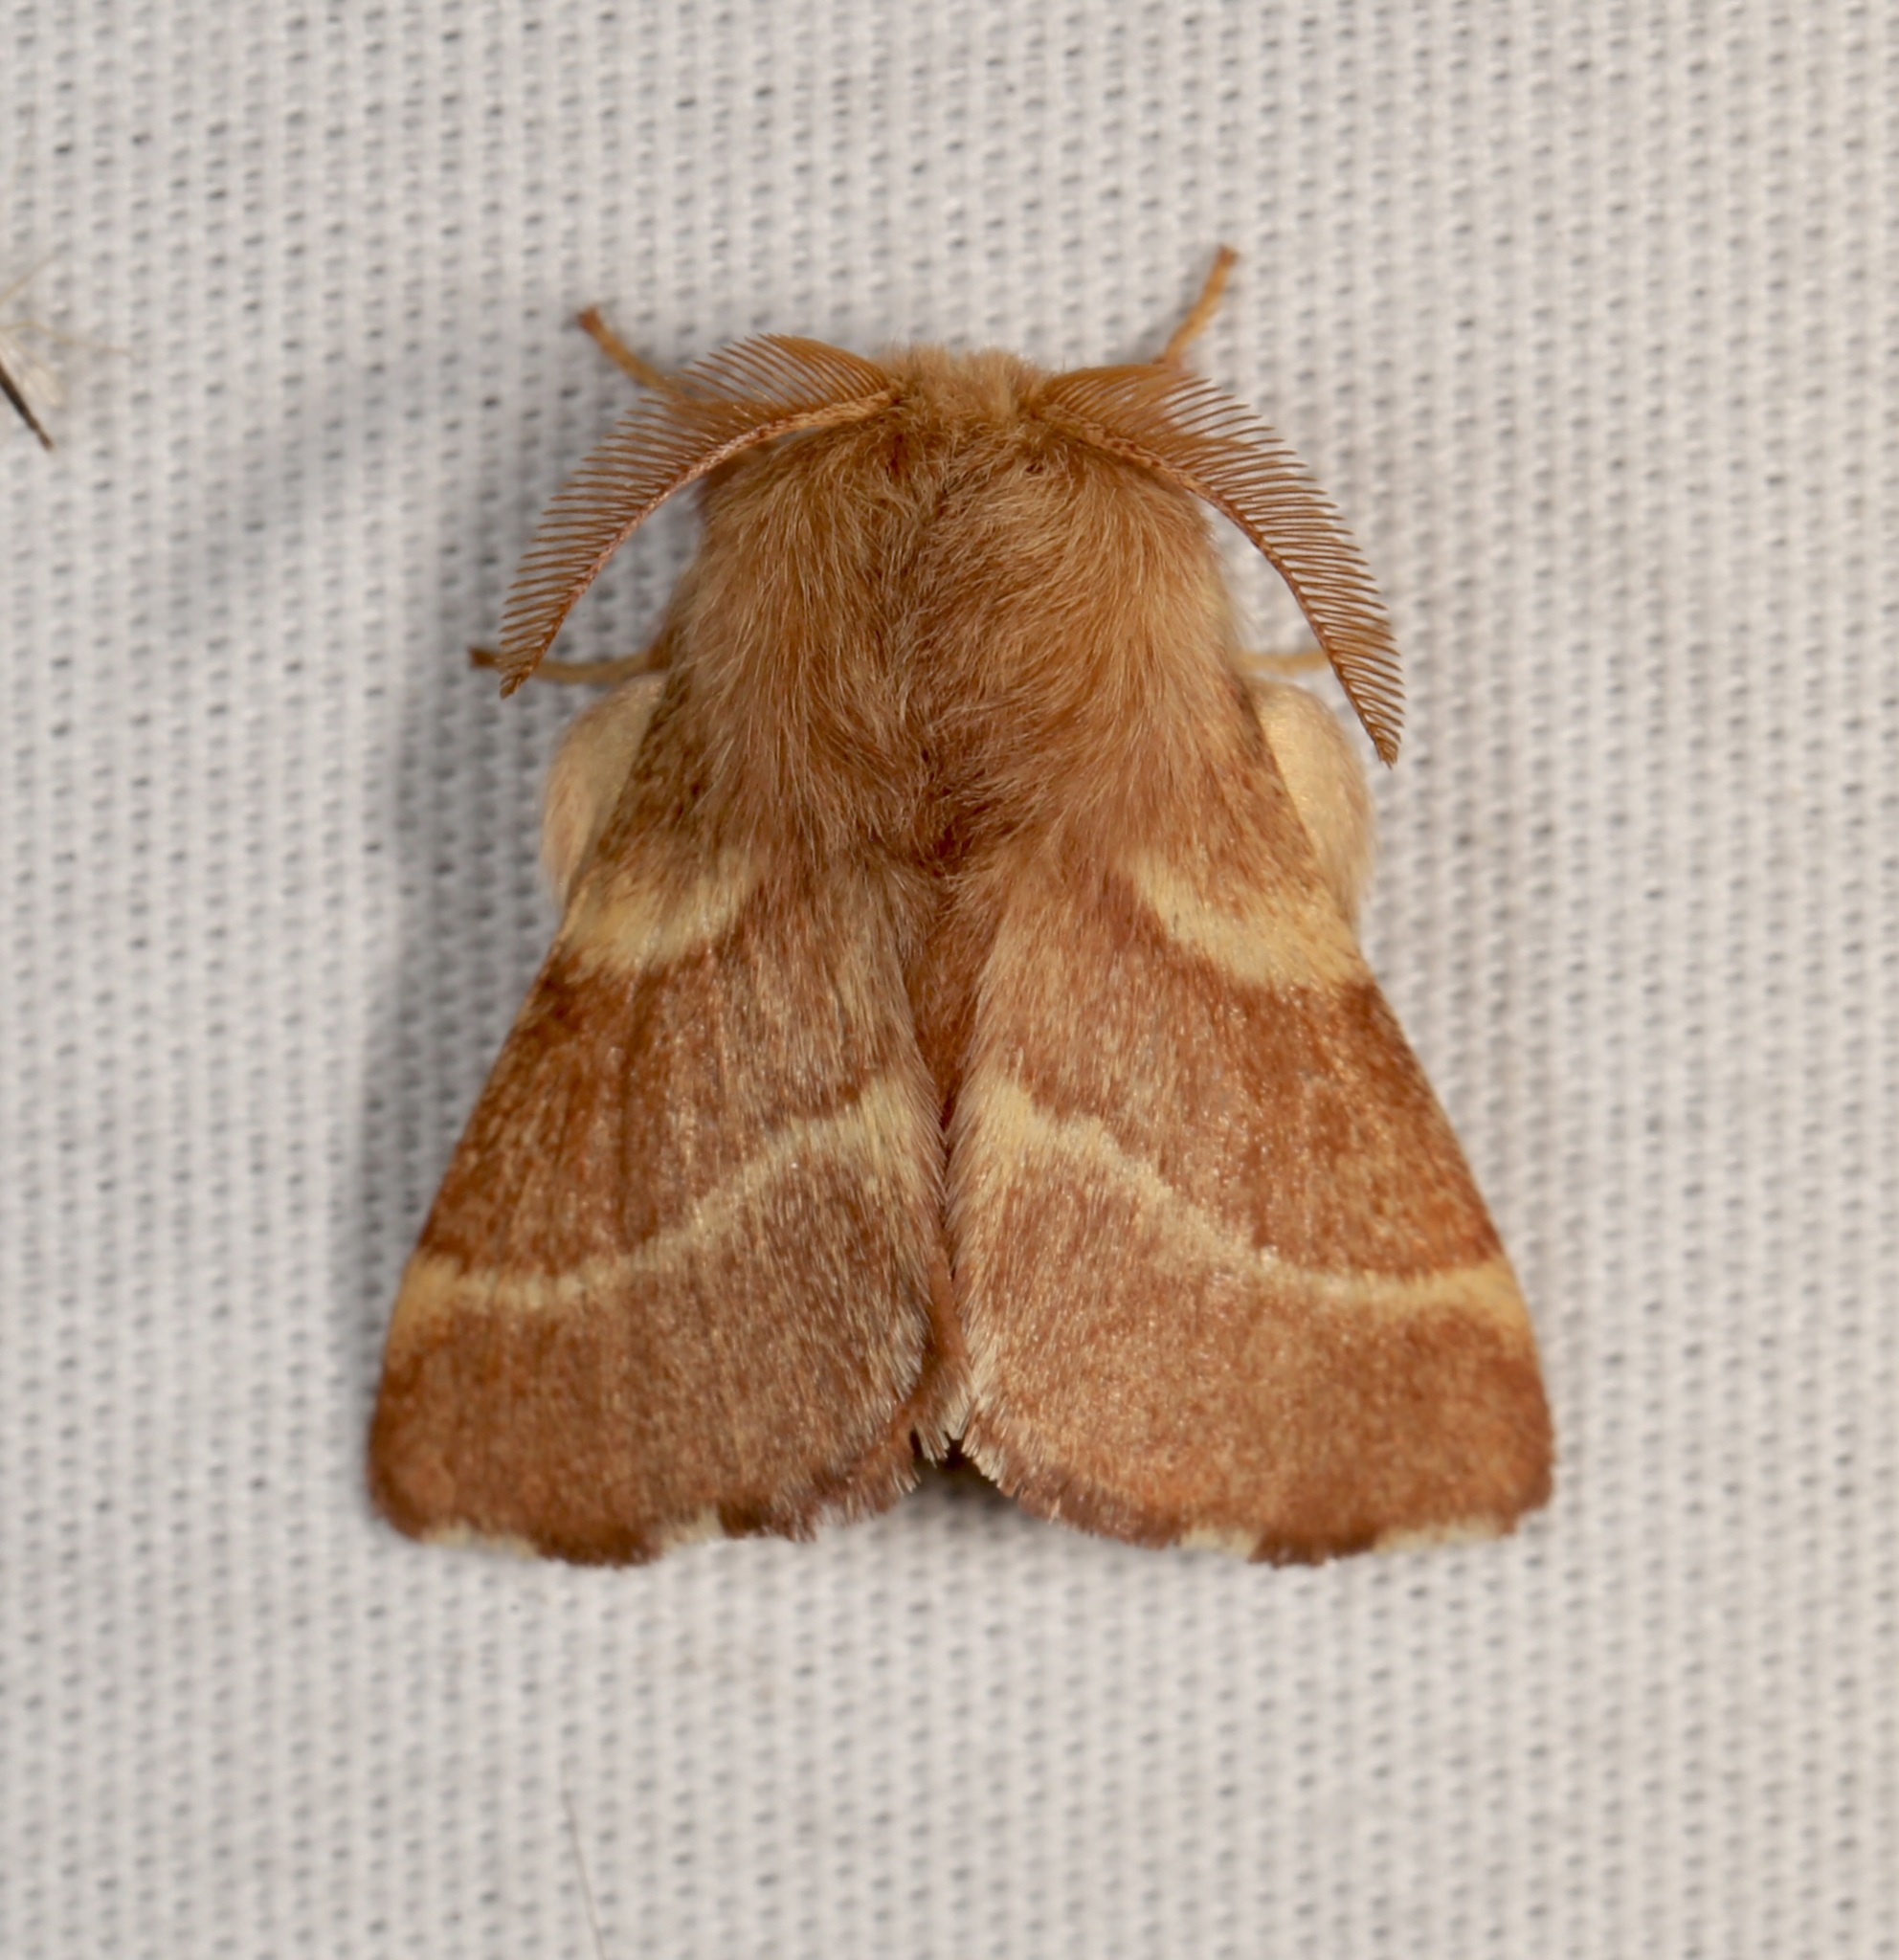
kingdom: Animalia
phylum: Arthropoda
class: Insecta
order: Lepidoptera
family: Lasiocampidae
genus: Malacosoma
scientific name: Malacosoma californica
